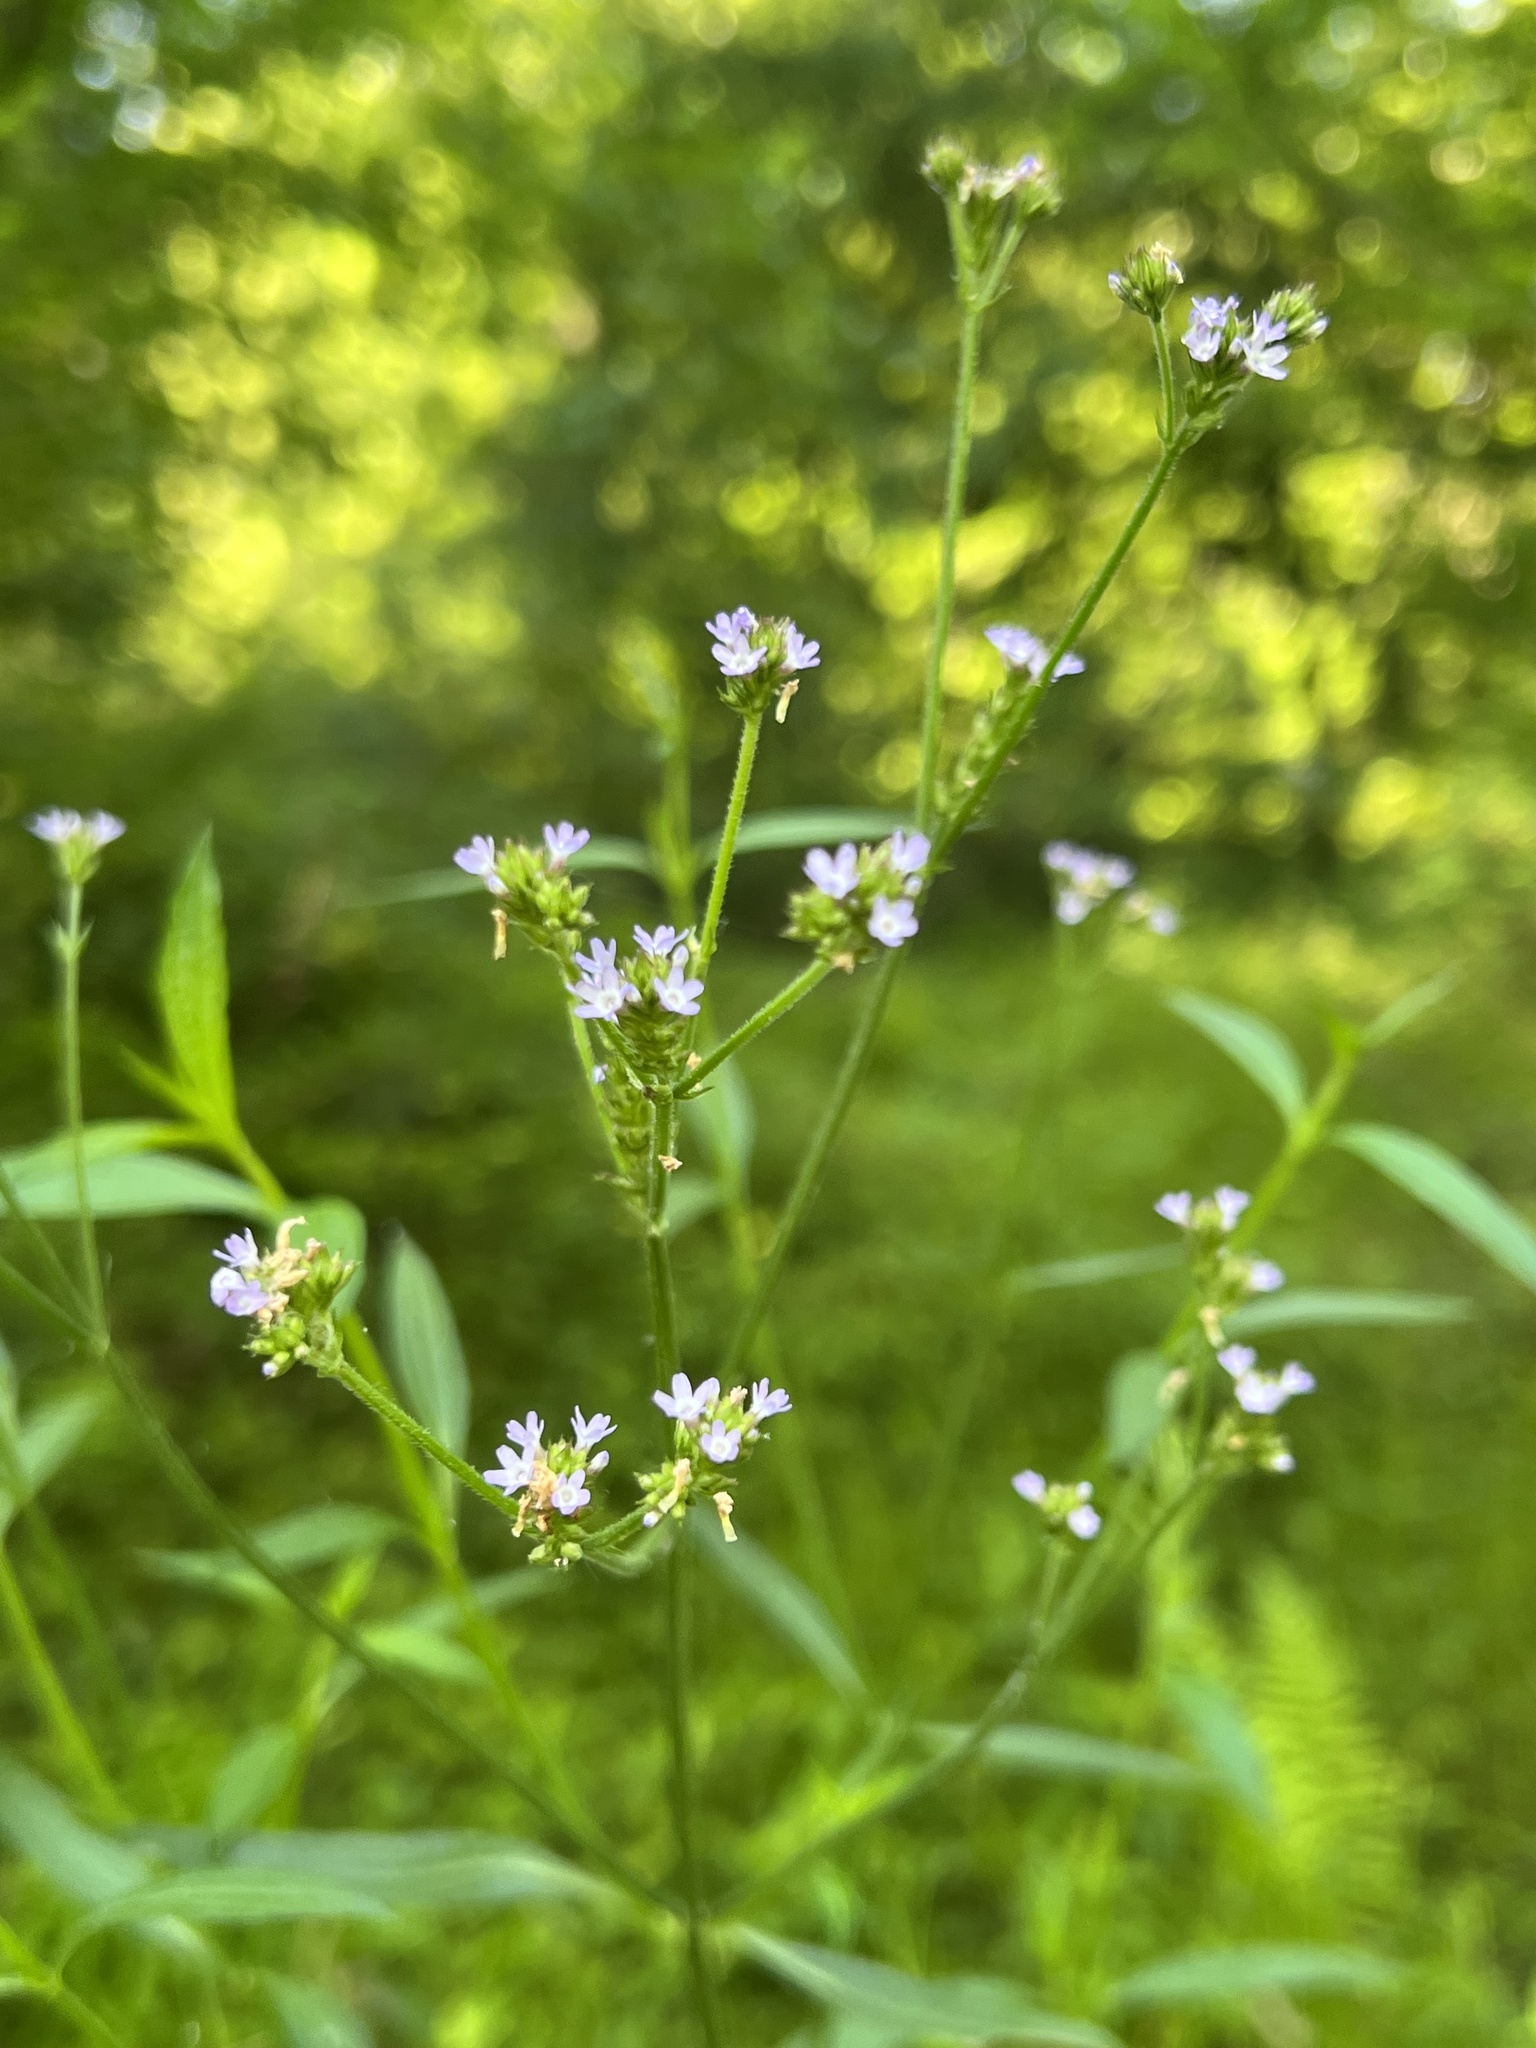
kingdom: Plantae
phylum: Tracheophyta
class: Magnoliopsida
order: Lamiales
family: Verbenaceae
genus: Verbena
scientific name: Verbena brasiliensis
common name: Brazilian vervain
